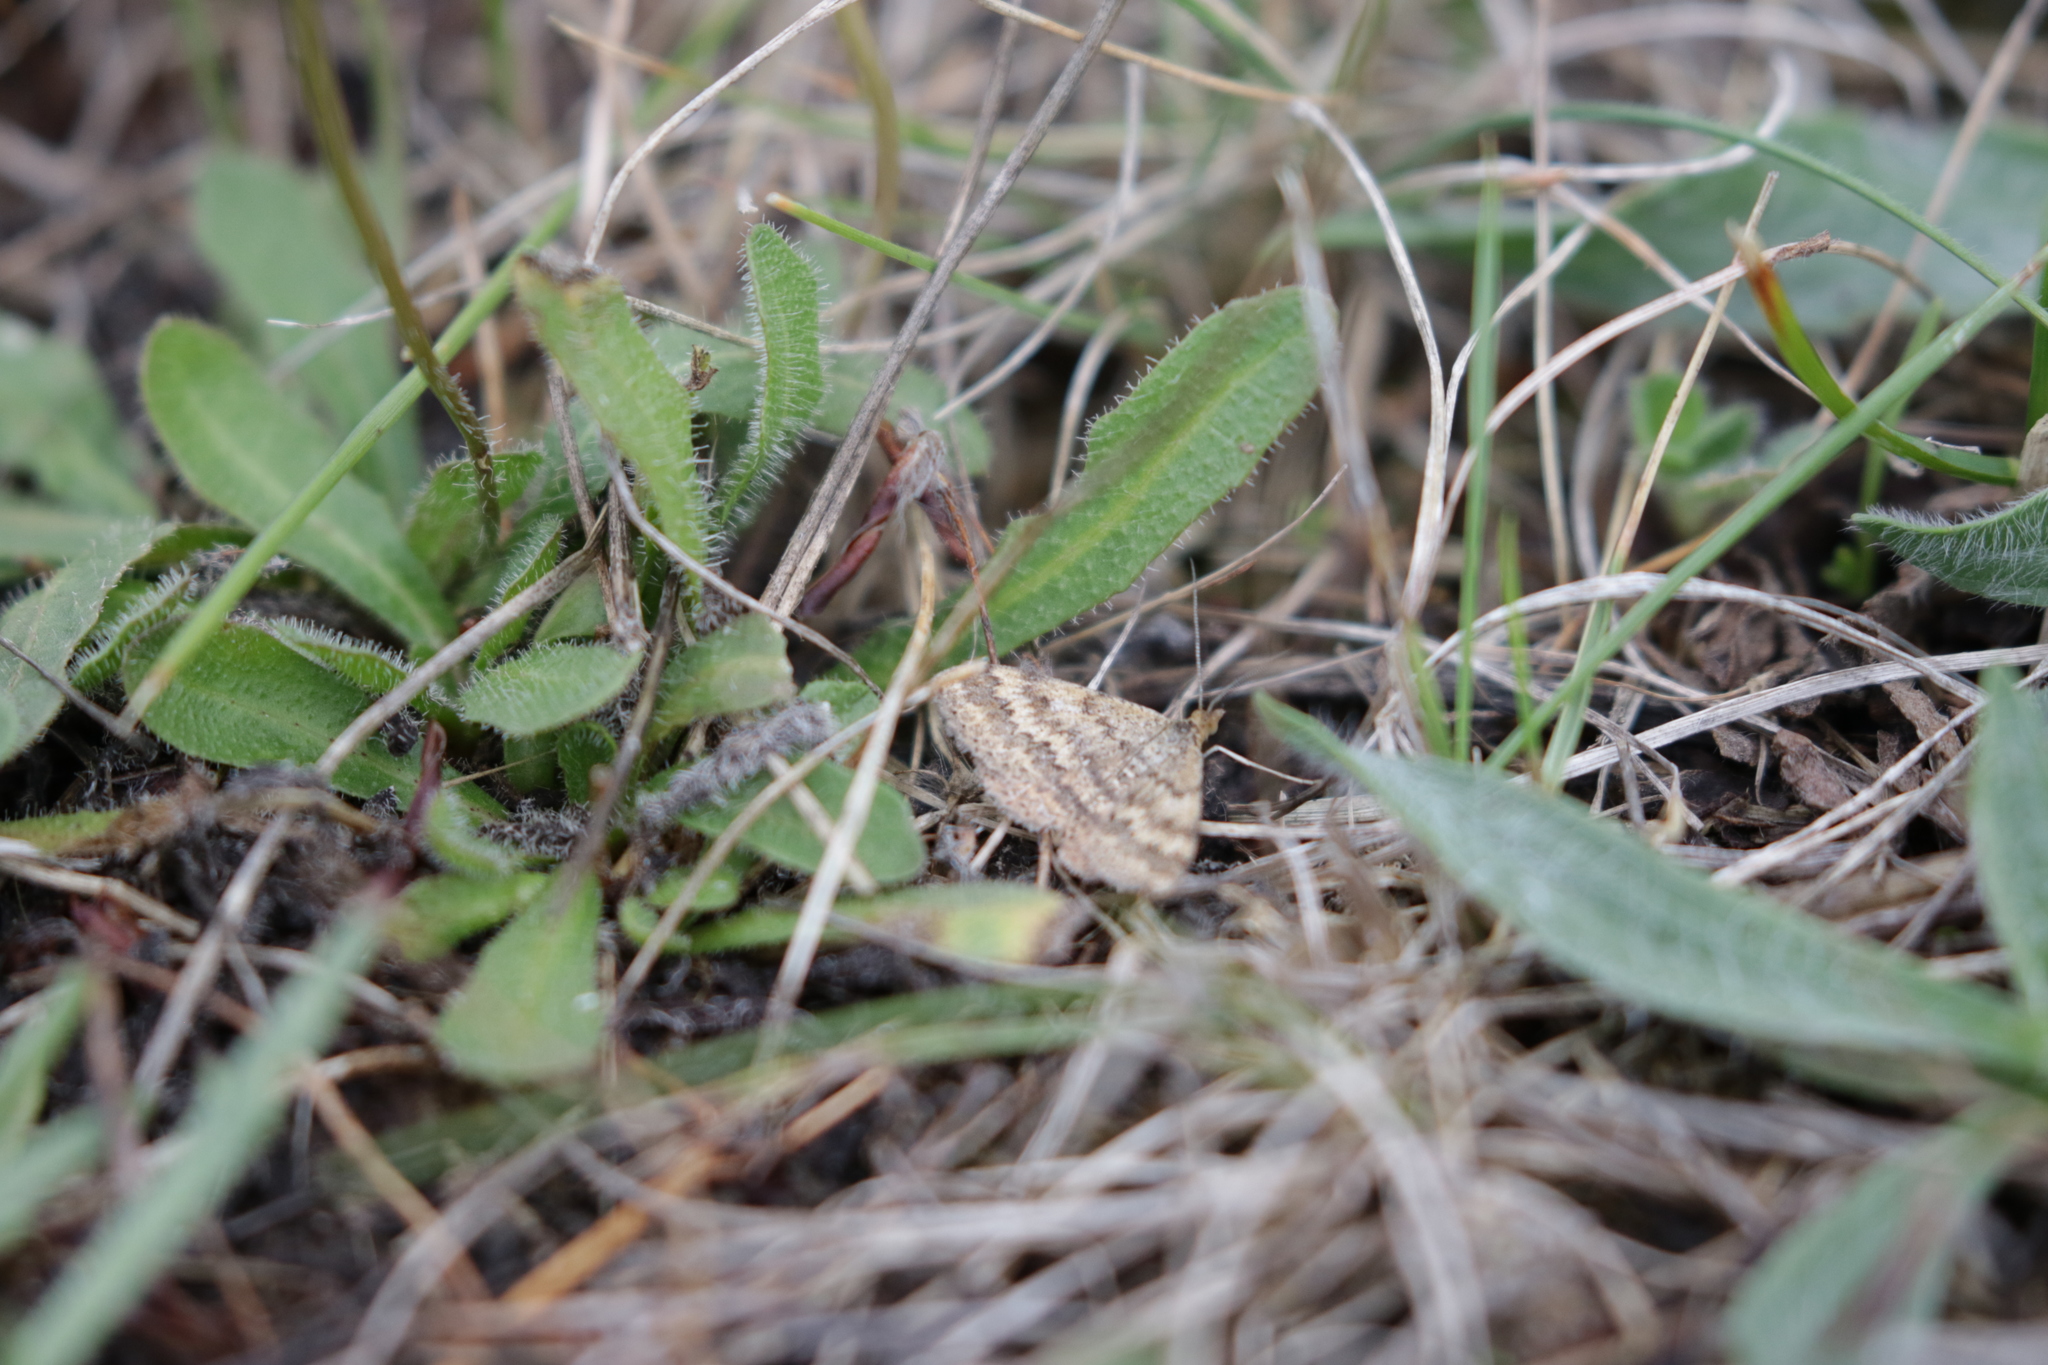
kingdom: Animalia
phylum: Arthropoda
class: Insecta
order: Lepidoptera
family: Geometridae
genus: Scopula
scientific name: Scopula rubraria
